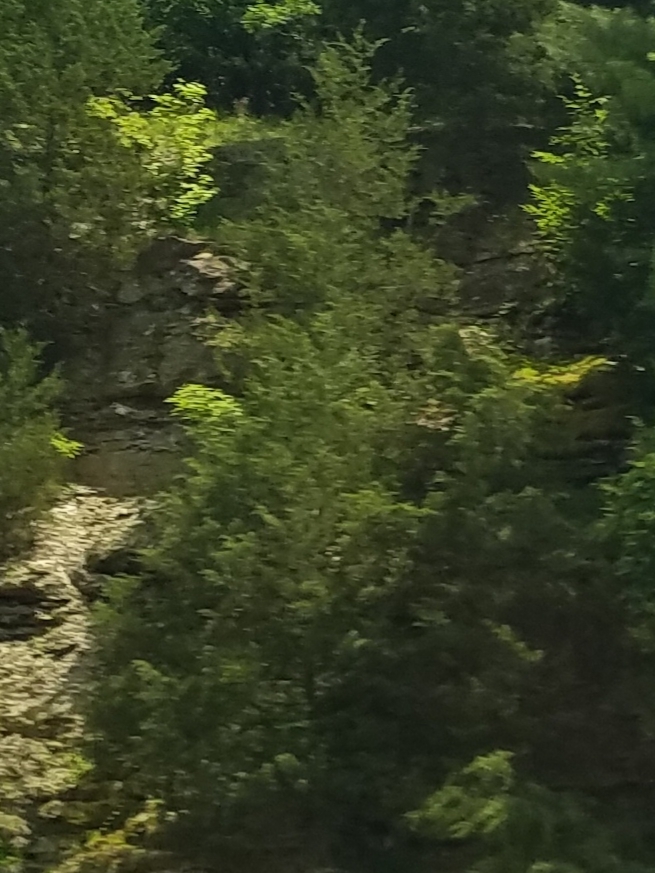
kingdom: Plantae
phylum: Tracheophyta
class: Pinopsida
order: Pinales
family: Cupressaceae
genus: Juniperus
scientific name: Juniperus virginiana
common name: Red juniper
